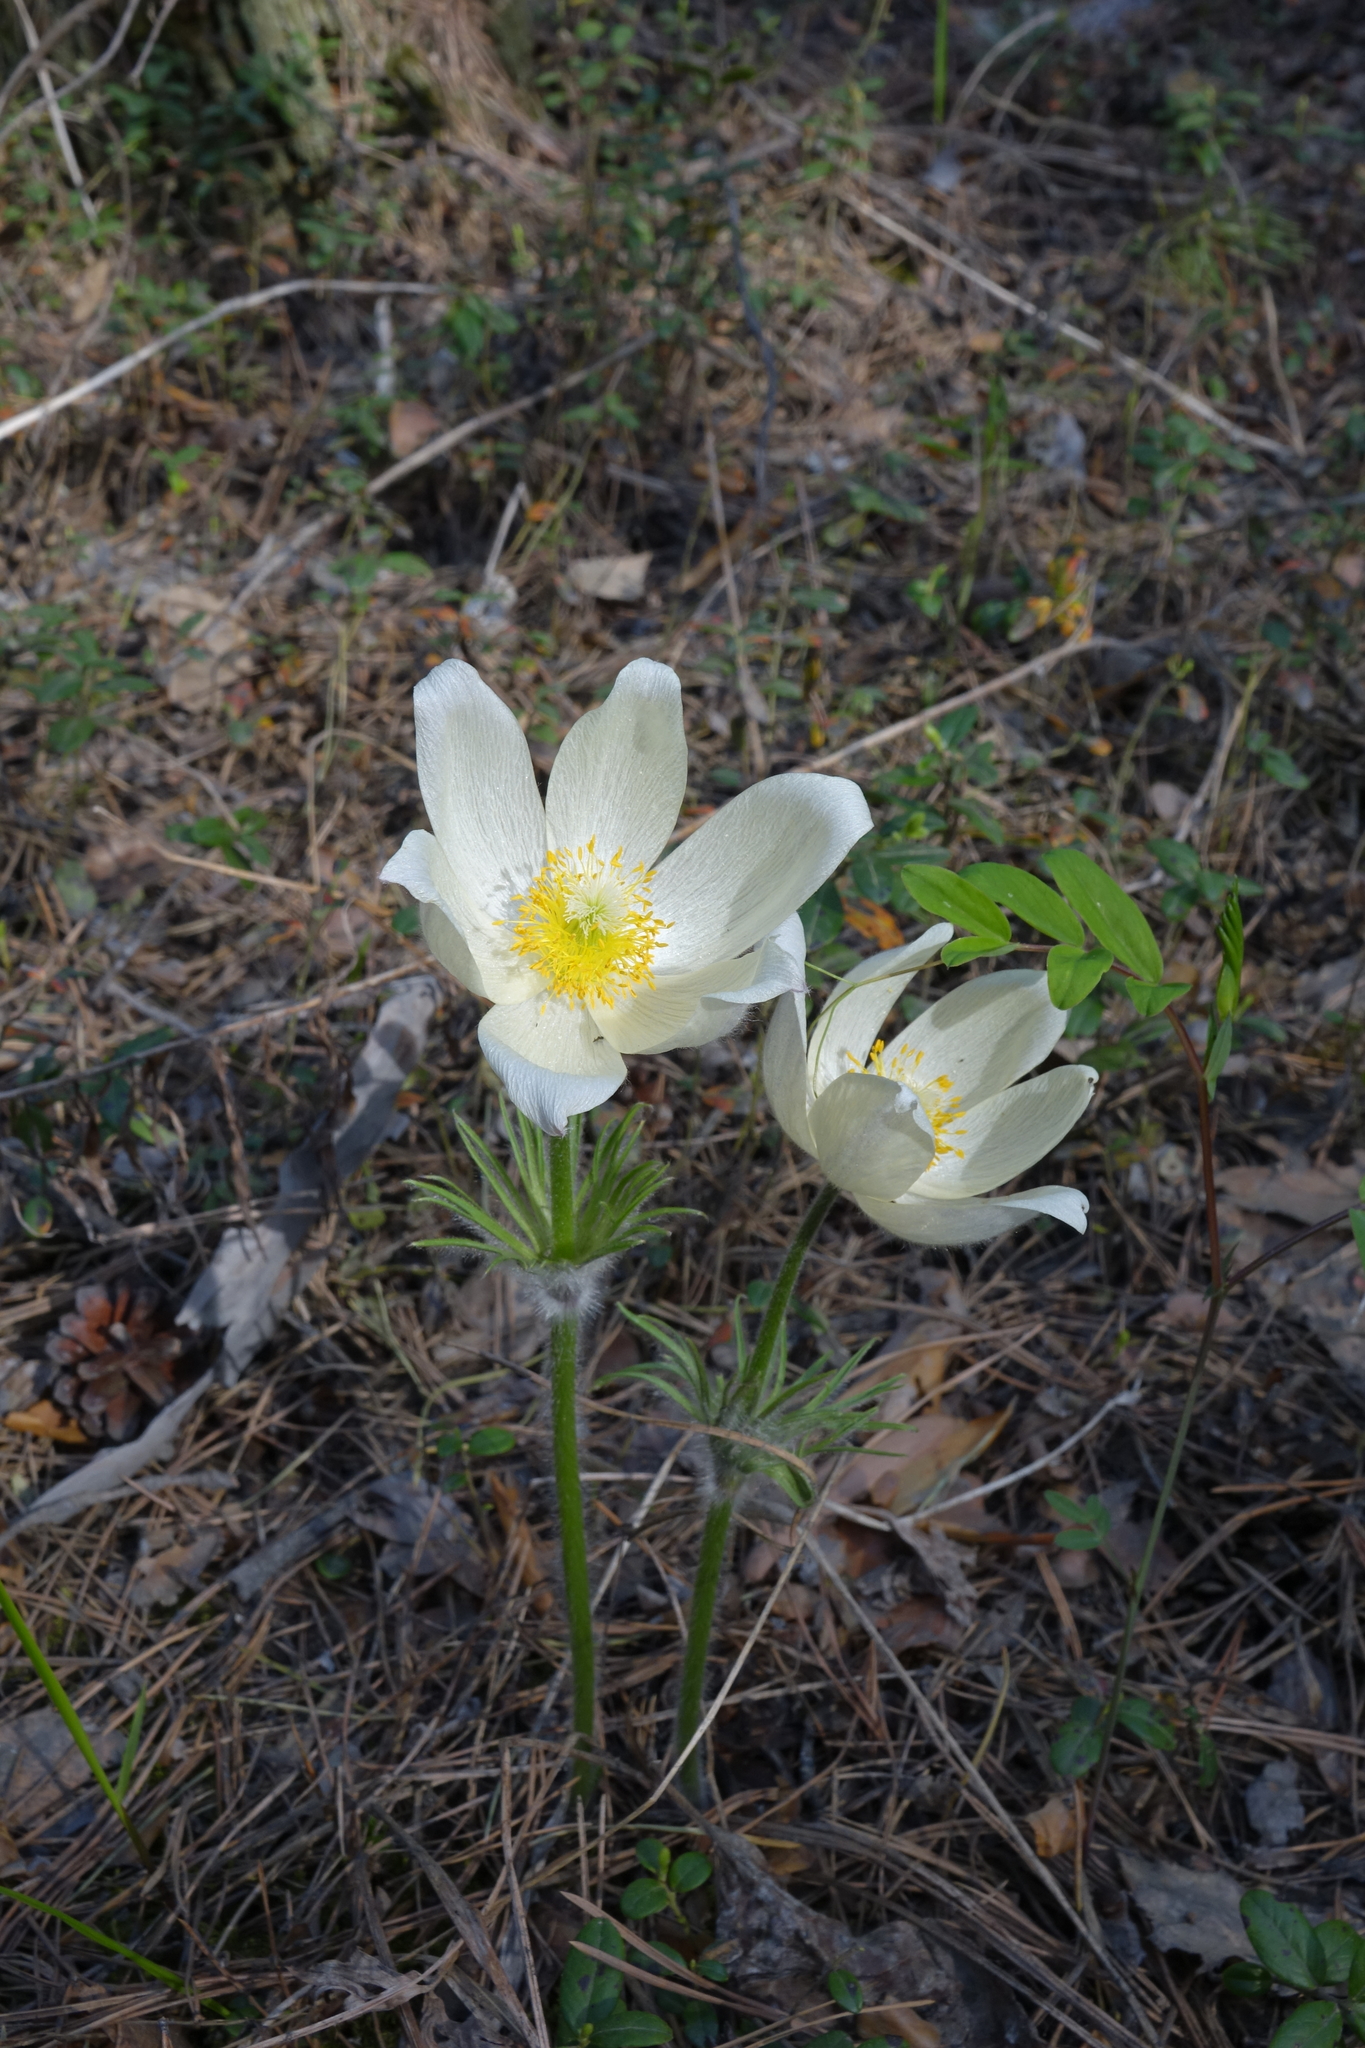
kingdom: Plantae
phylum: Tracheophyta
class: Magnoliopsida
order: Ranunculales
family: Ranunculaceae
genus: Pulsatilla
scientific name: Pulsatilla patens
